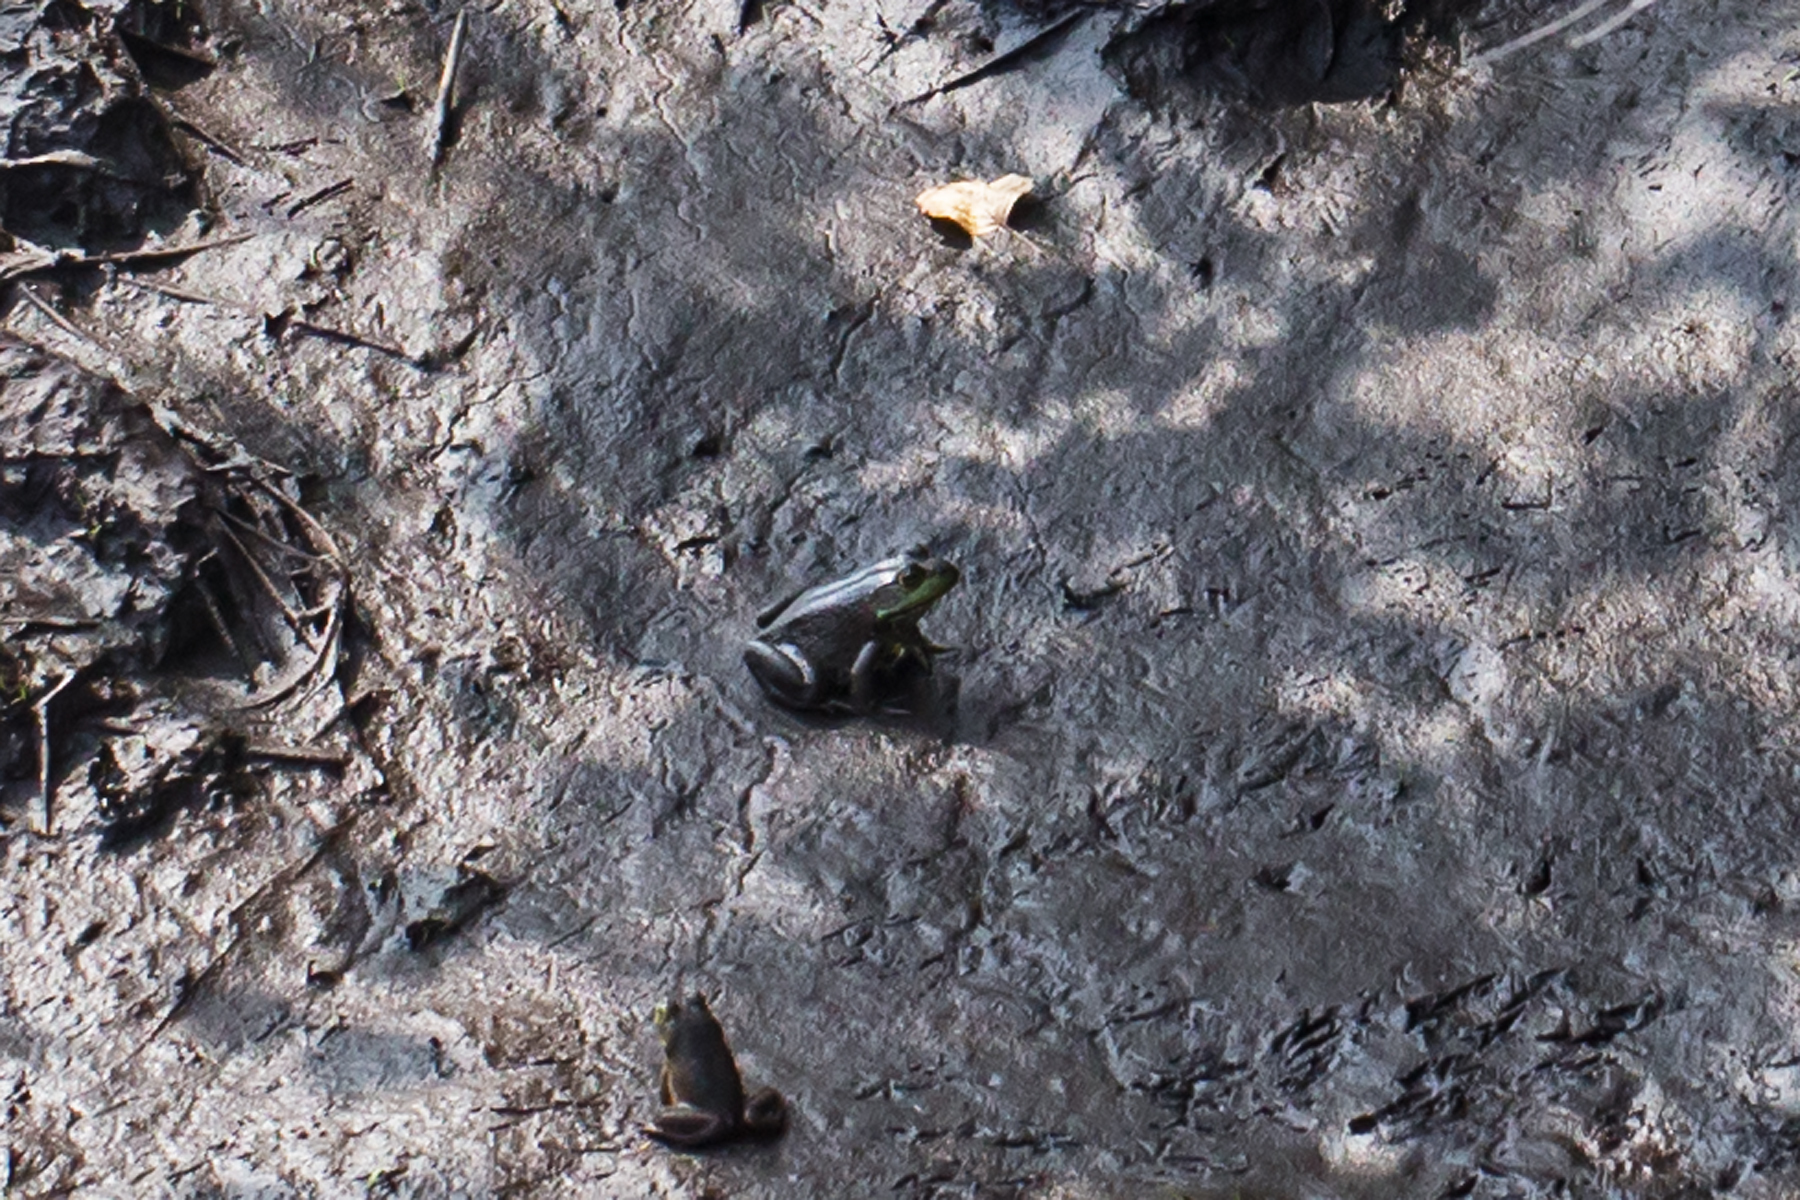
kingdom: Animalia
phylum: Chordata
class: Amphibia
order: Anura
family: Ranidae
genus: Lithobates
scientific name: Lithobates catesbeianus
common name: American bullfrog
